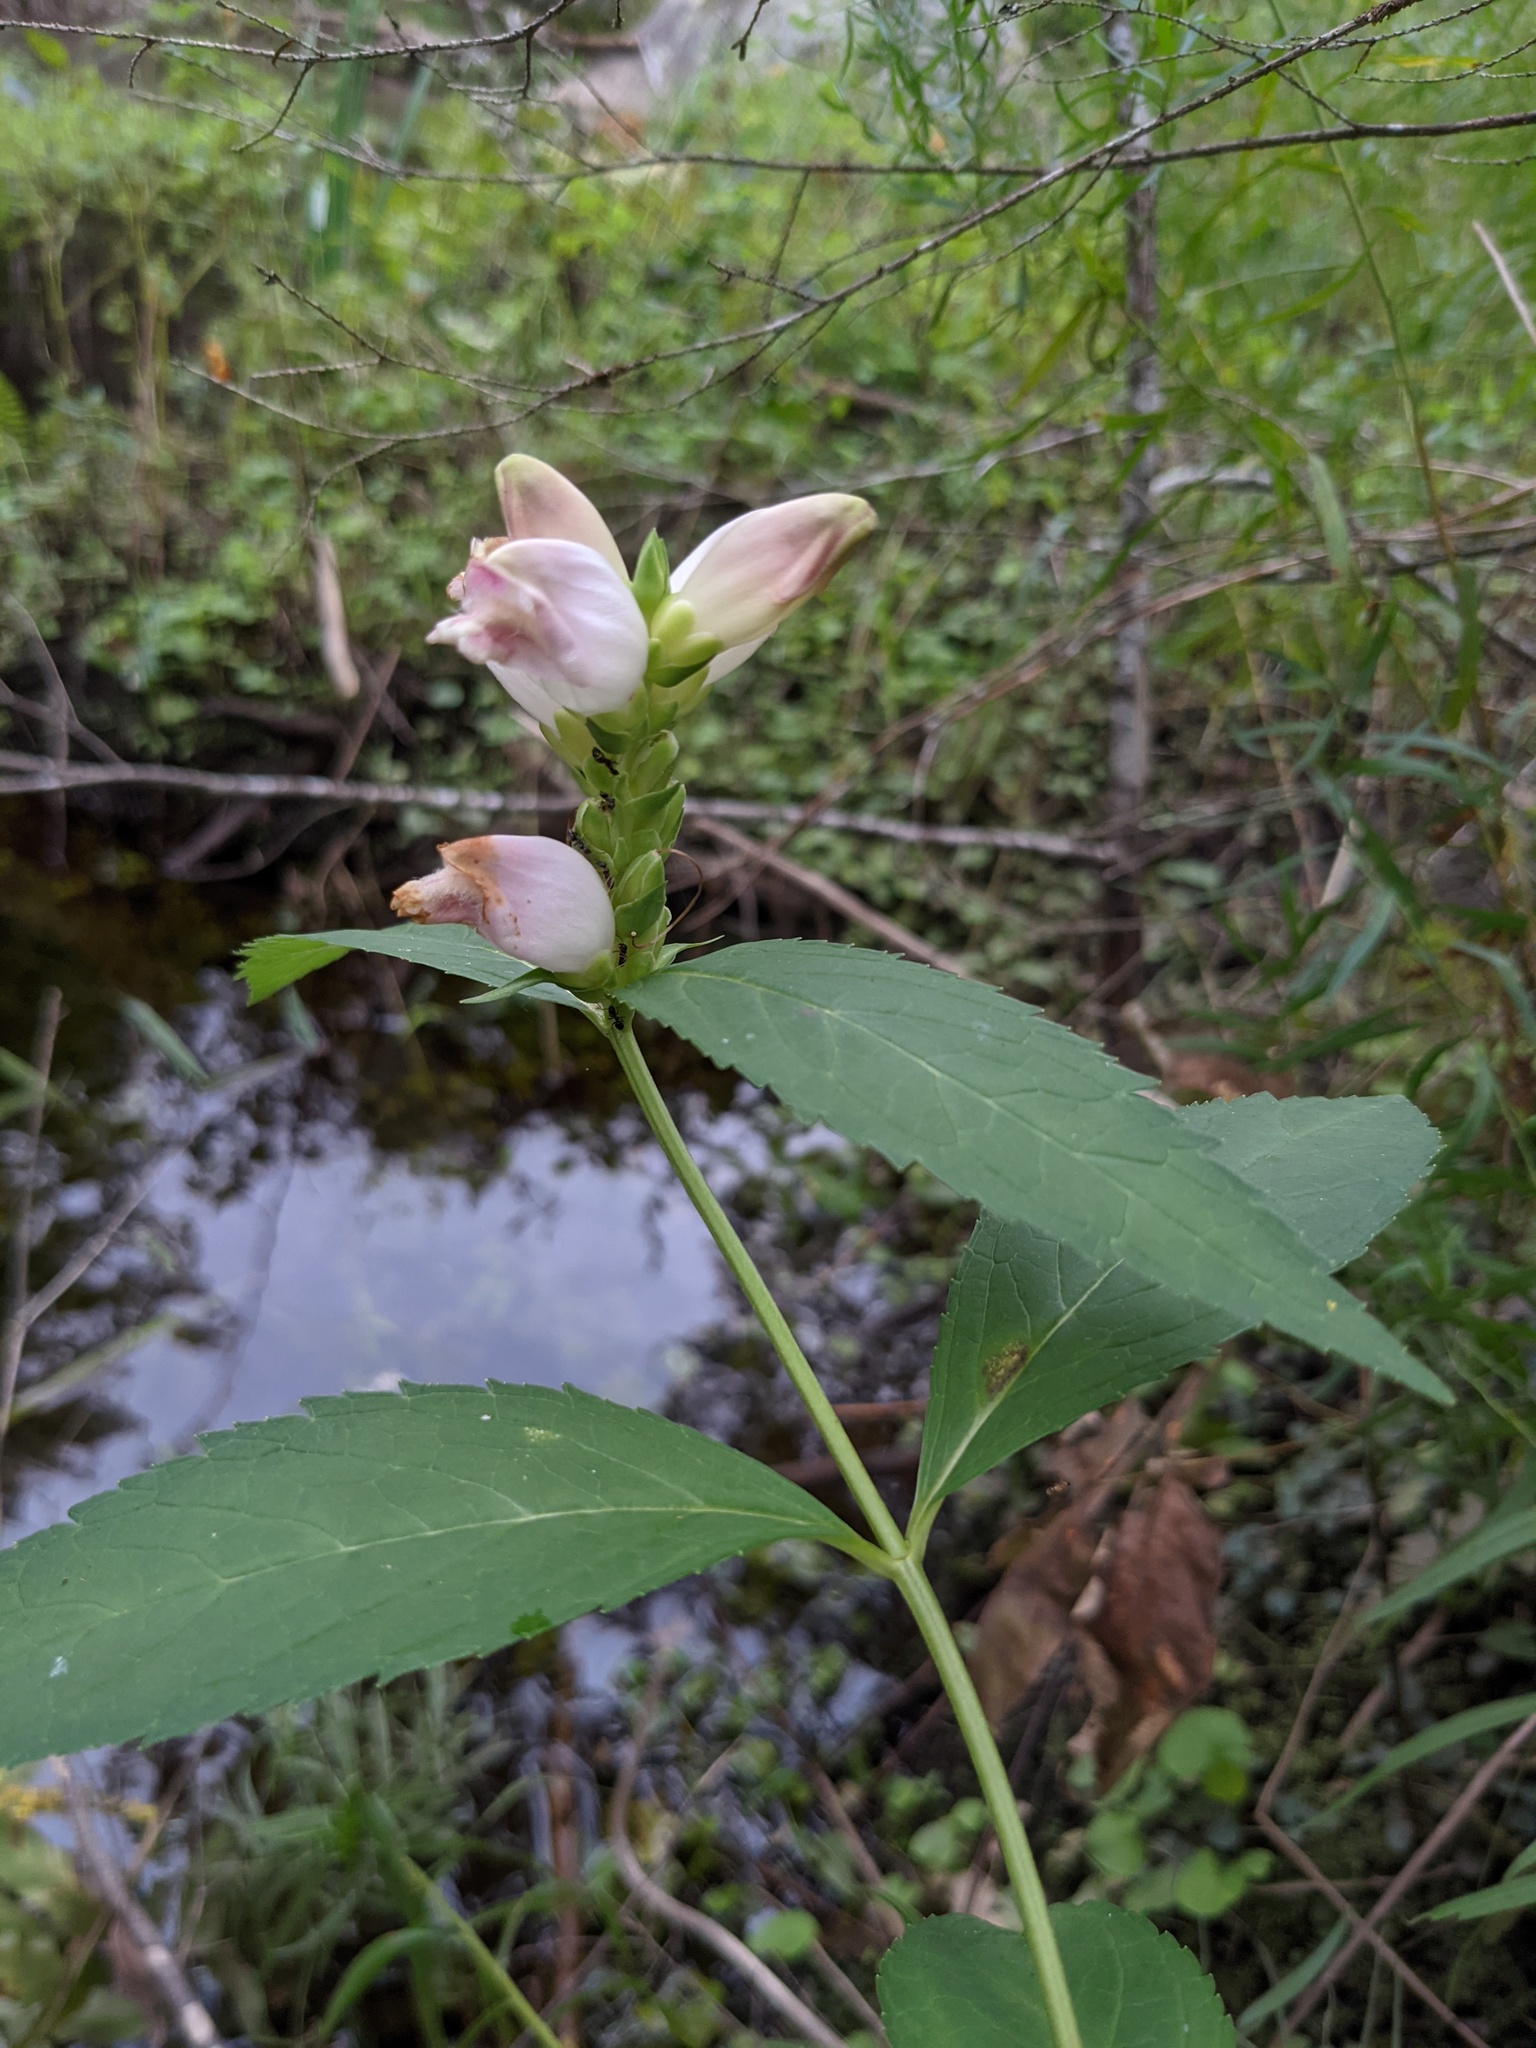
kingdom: Plantae
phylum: Tracheophyta
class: Magnoliopsida
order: Lamiales
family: Plantaginaceae
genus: Chelone
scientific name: Chelone glabra
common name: Snakehead
